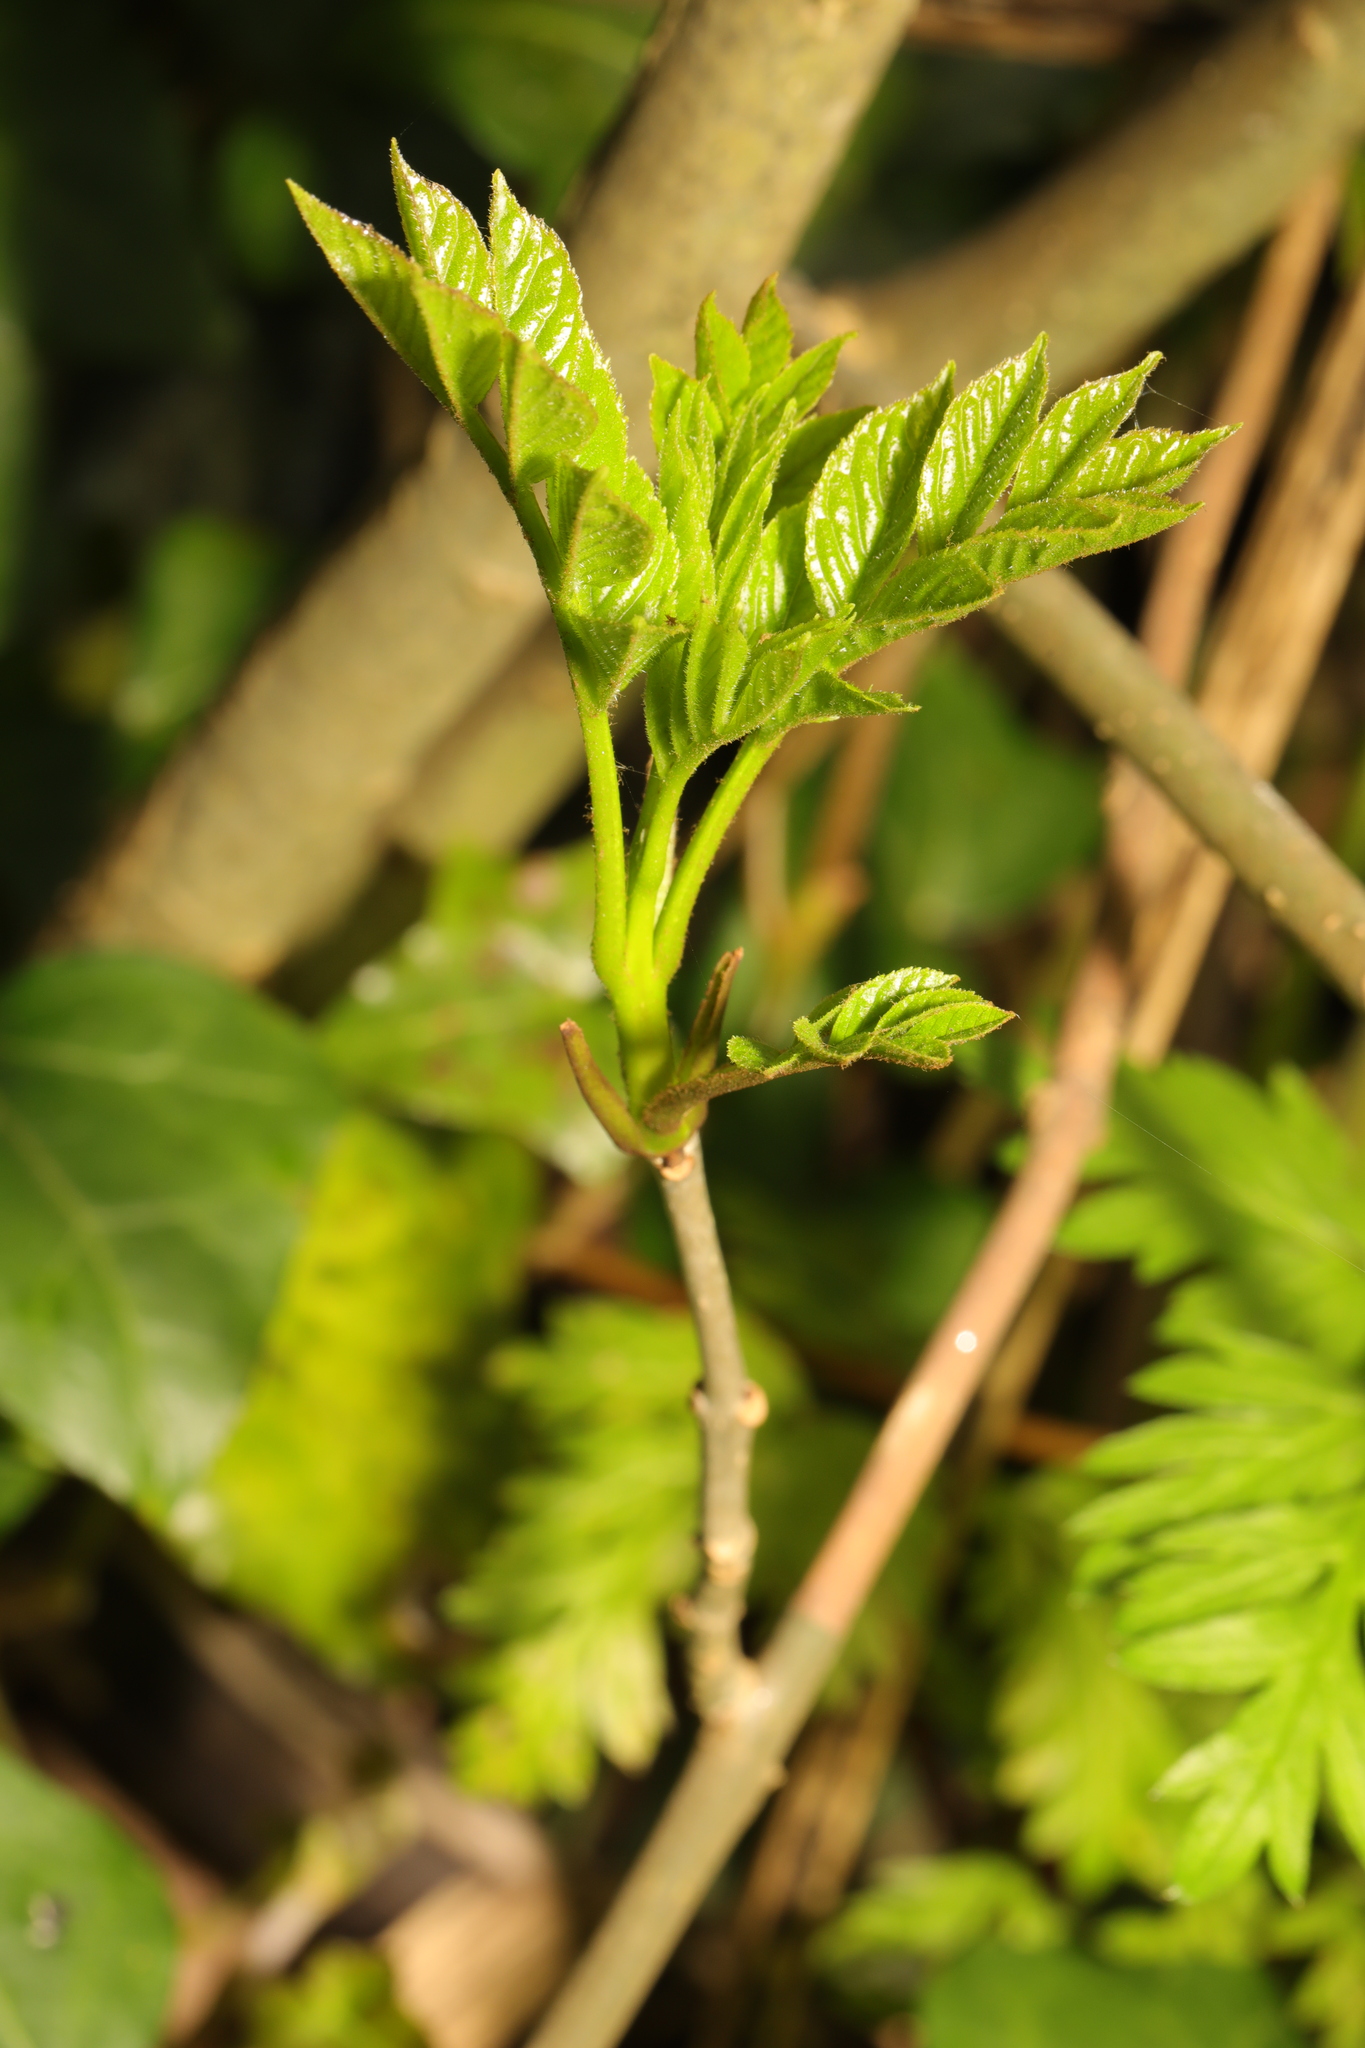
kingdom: Plantae
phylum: Tracheophyta
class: Magnoliopsida
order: Lamiales
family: Oleaceae
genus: Fraxinus
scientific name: Fraxinus excelsior
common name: European ash
